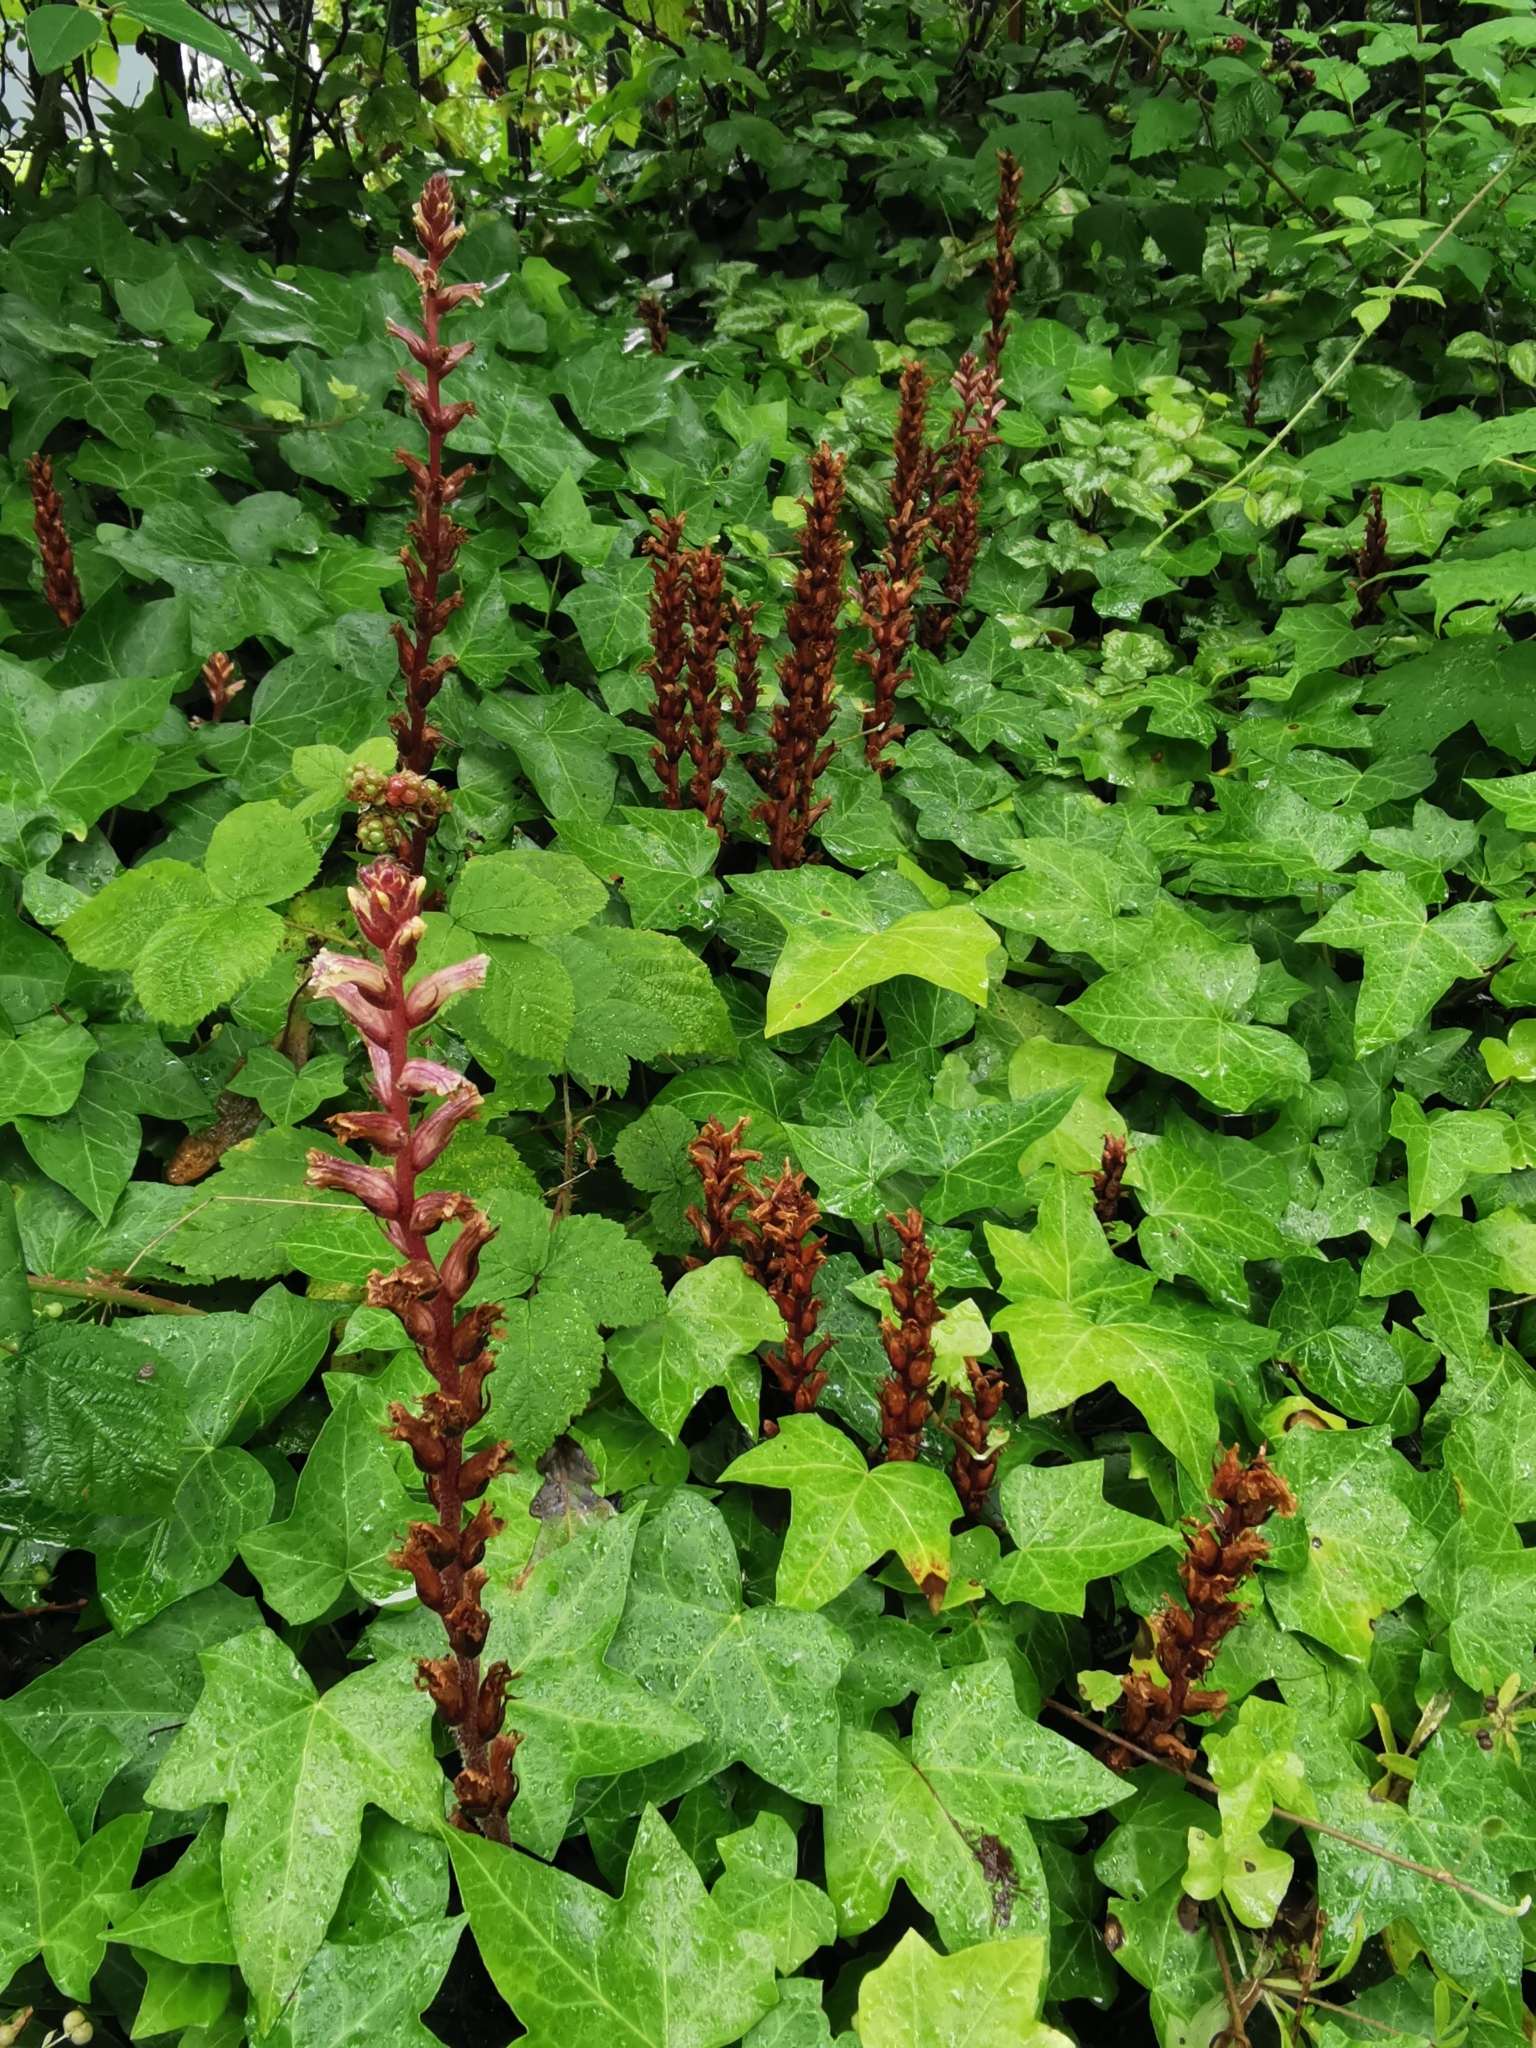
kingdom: Plantae
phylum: Tracheophyta
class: Magnoliopsida
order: Lamiales
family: Orobanchaceae
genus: Orobanche
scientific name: Orobanche hederae
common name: Ivy broomrape
